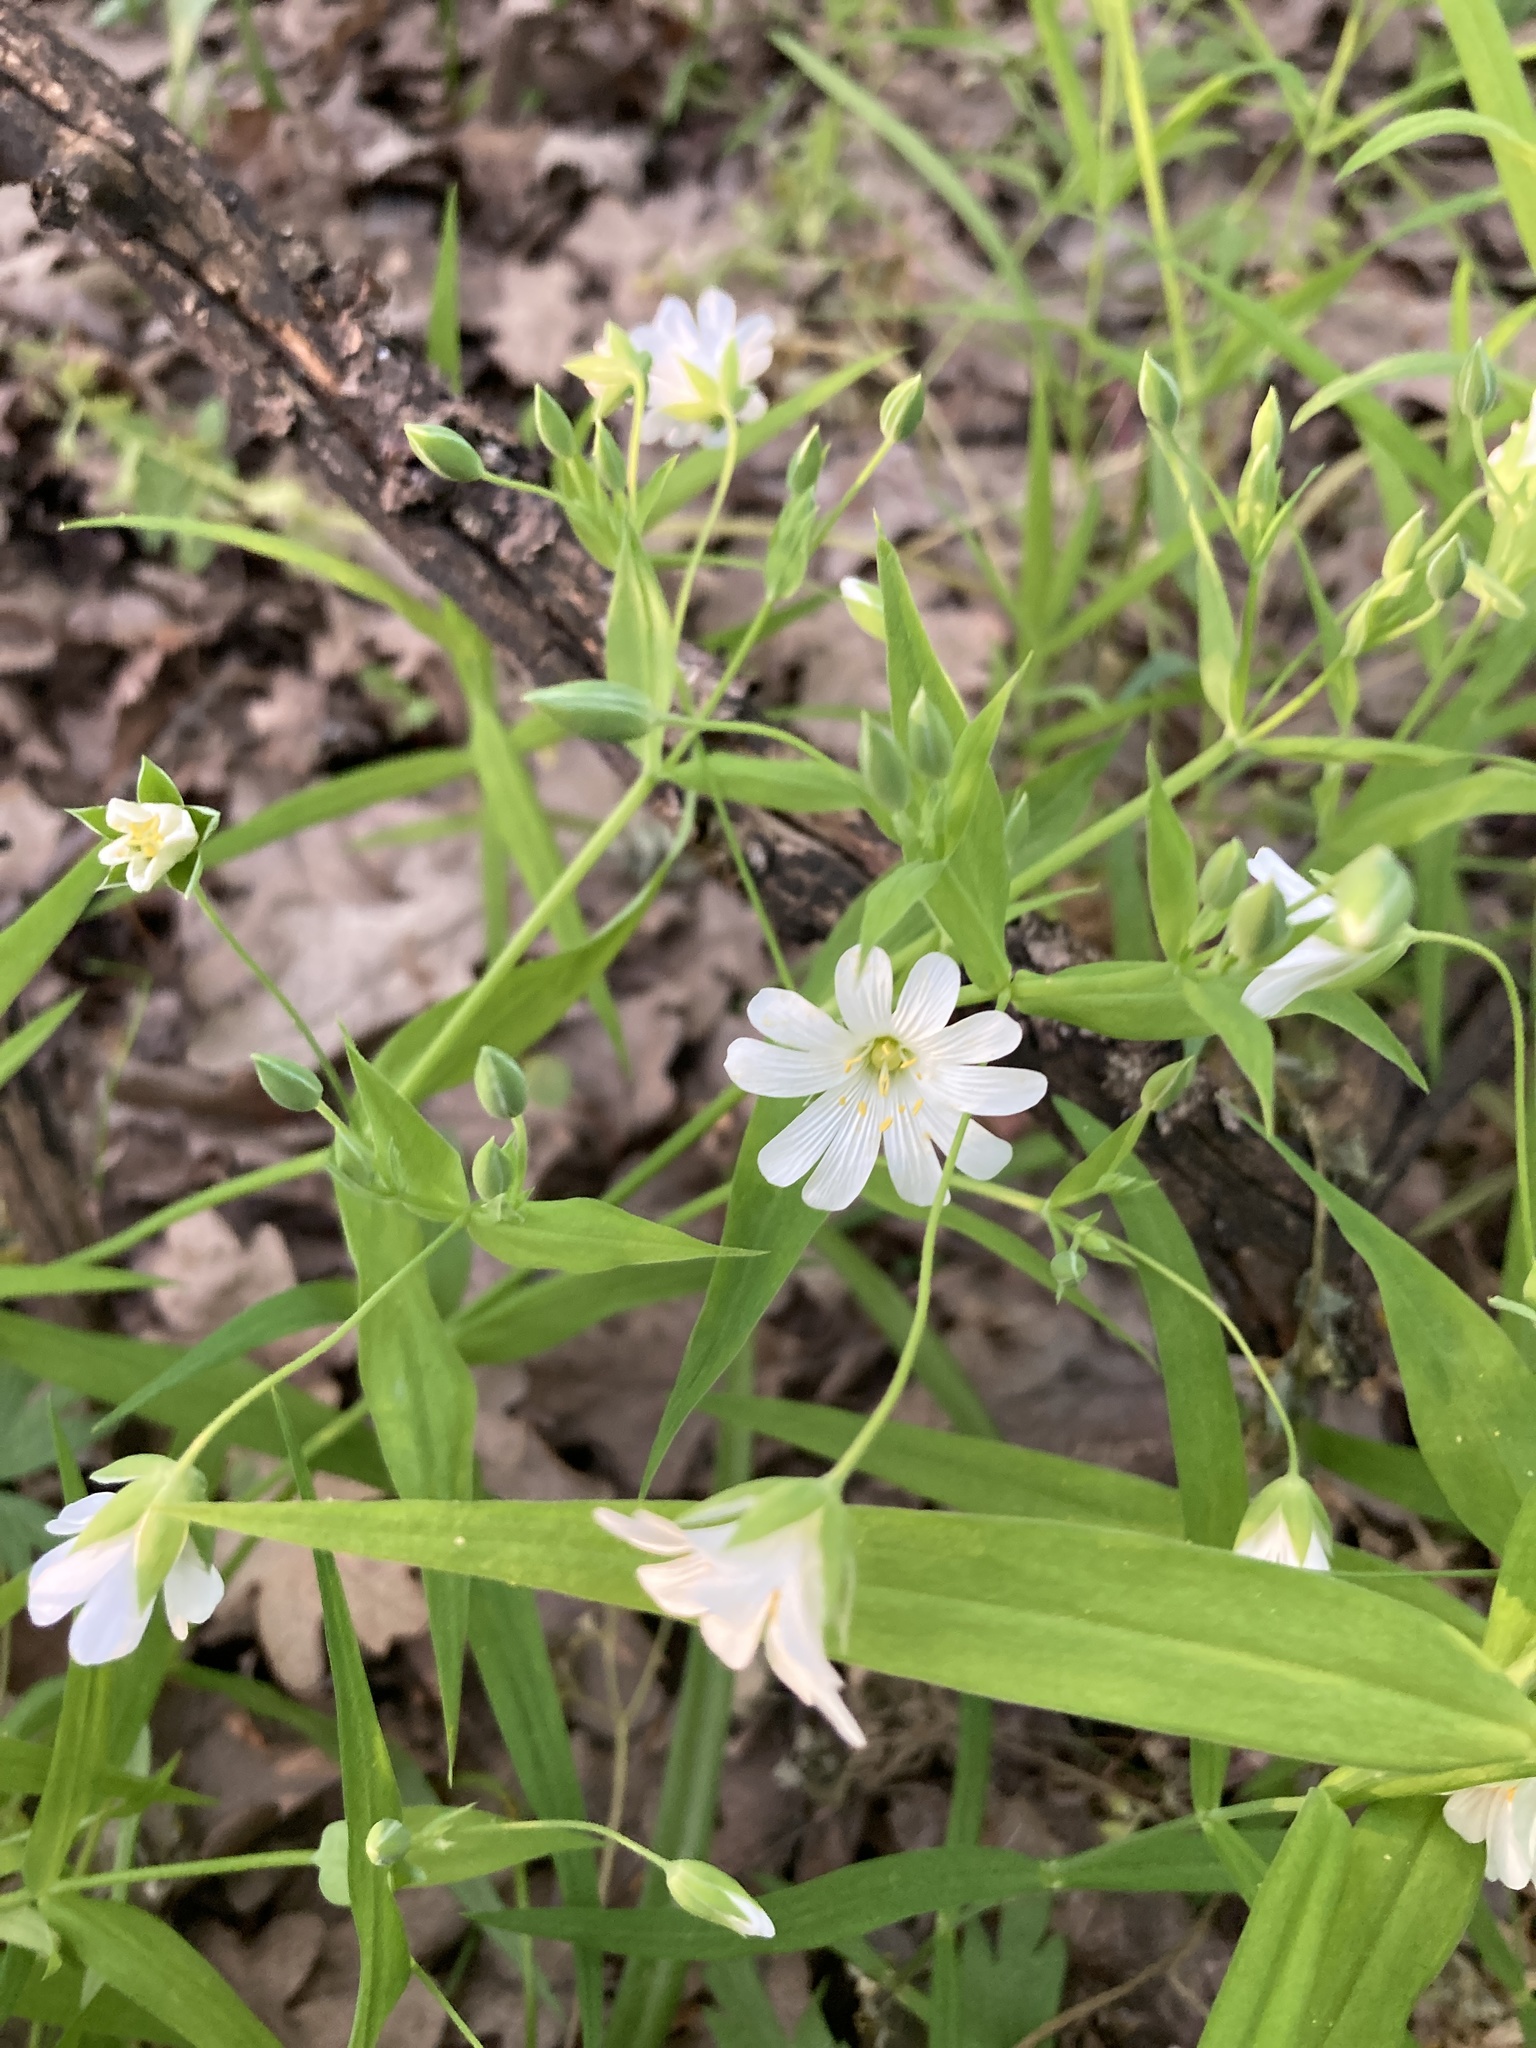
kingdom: Plantae
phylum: Tracheophyta
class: Magnoliopsida
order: Caryophyllales
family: Caryophyllaceae
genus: Rabelera
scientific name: Rabelera holostea
